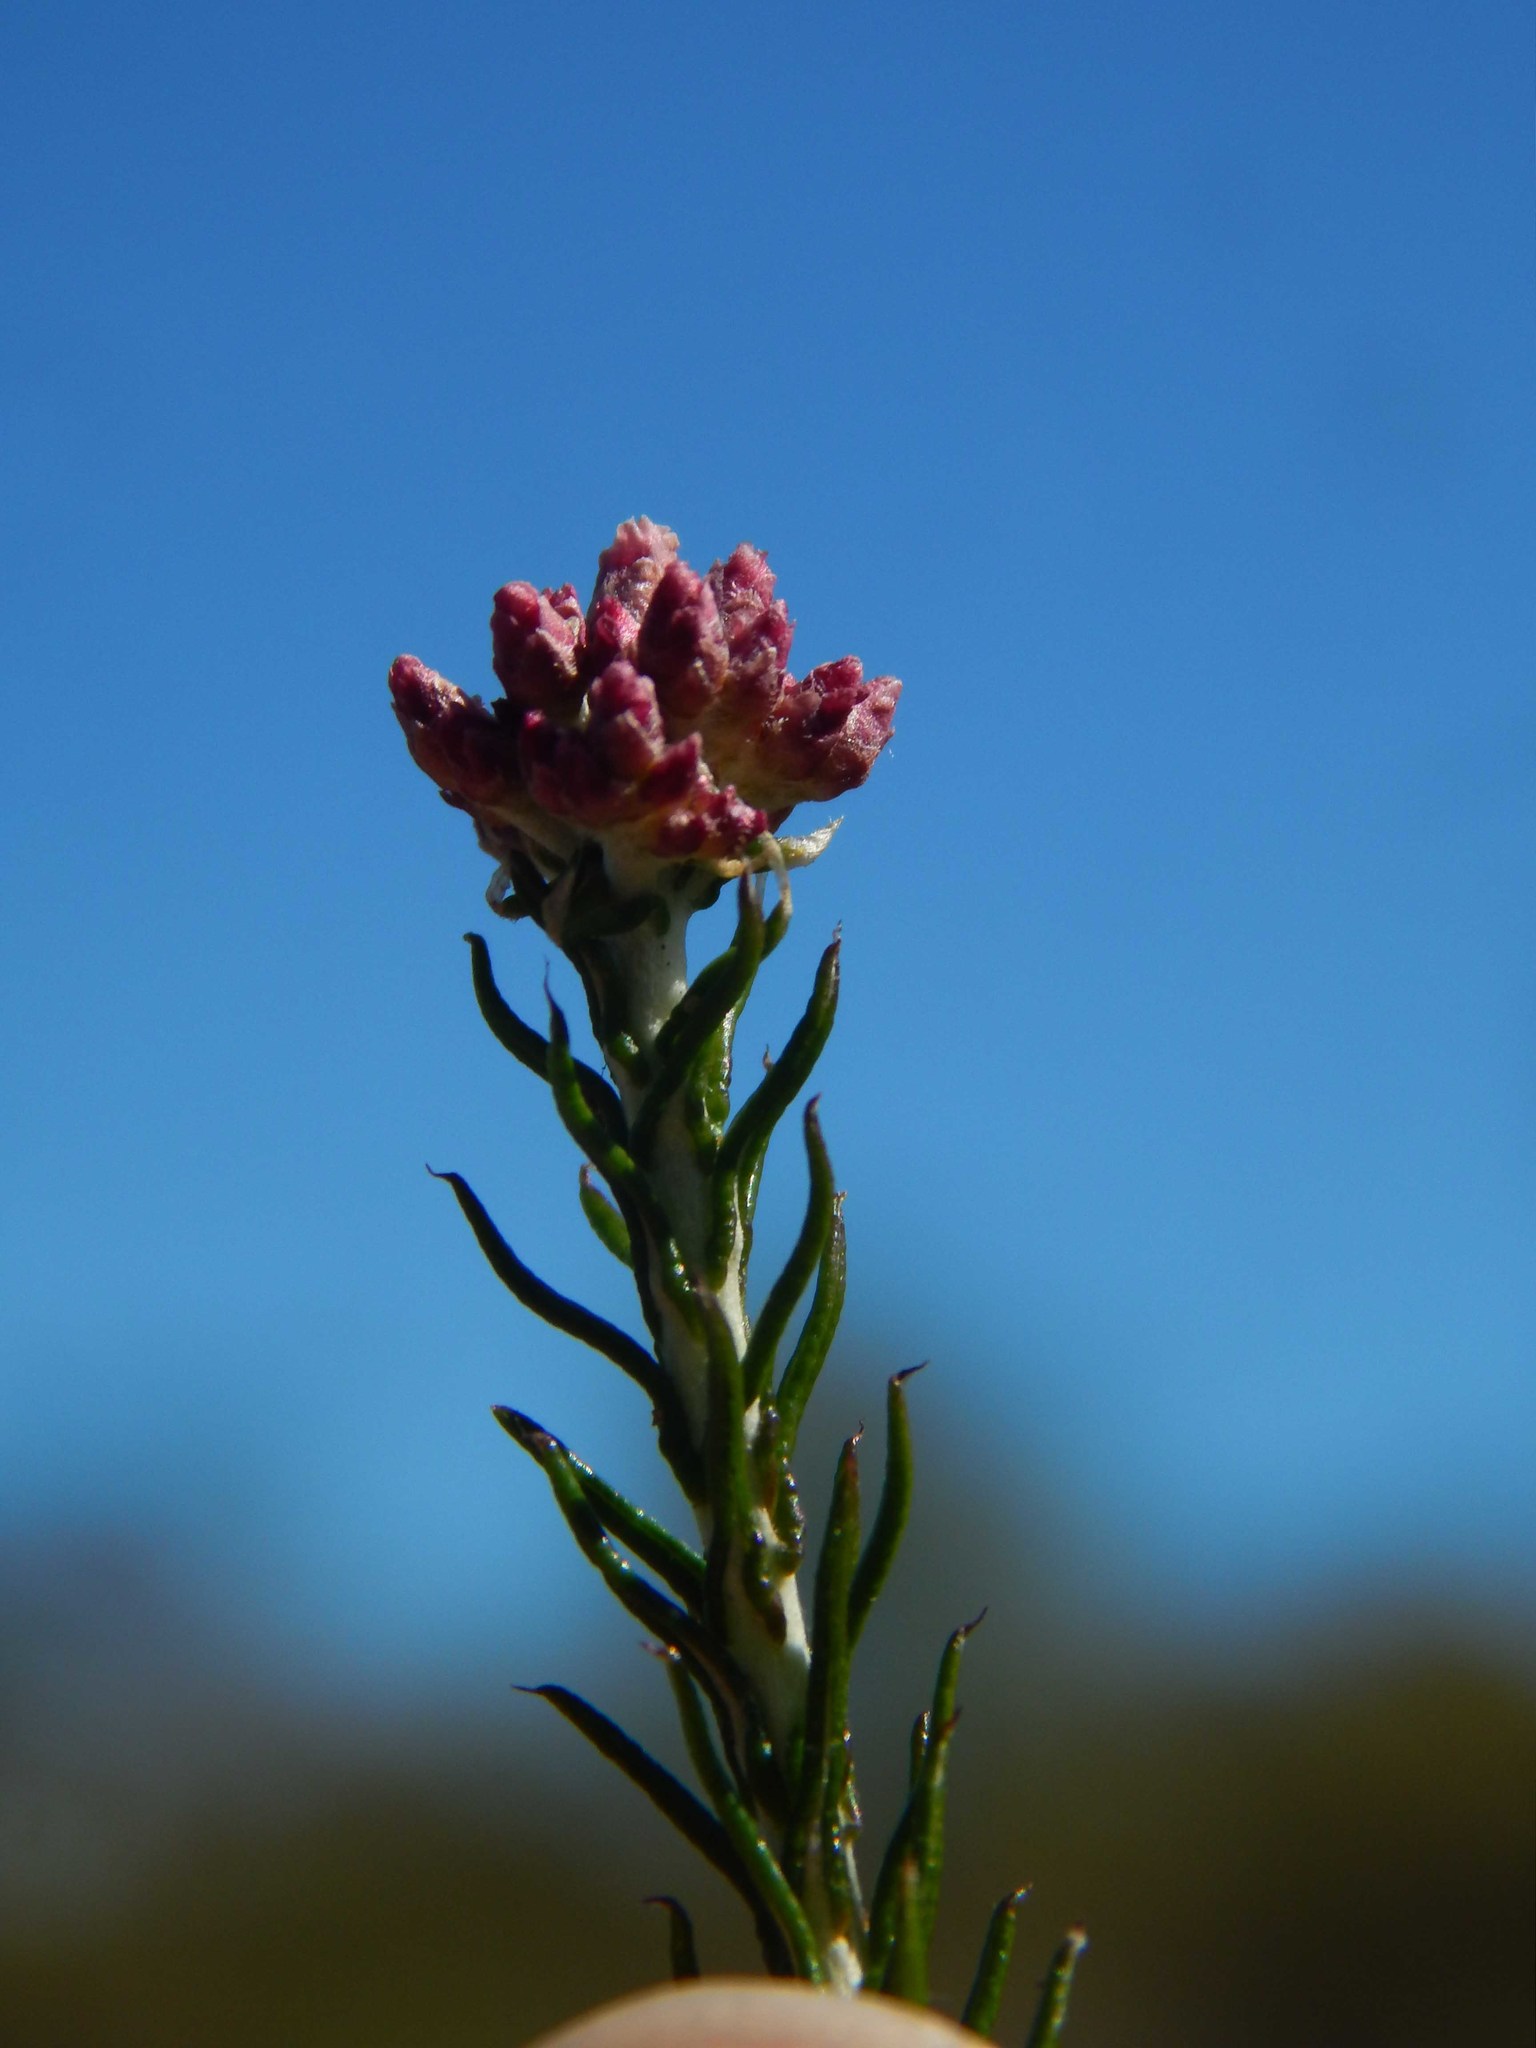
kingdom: Plantae
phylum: Tracheophyta
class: Magnoliopsida
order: Asterales
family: Asteraceae
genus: Helichrysum
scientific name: Helichrysum teretifolium
